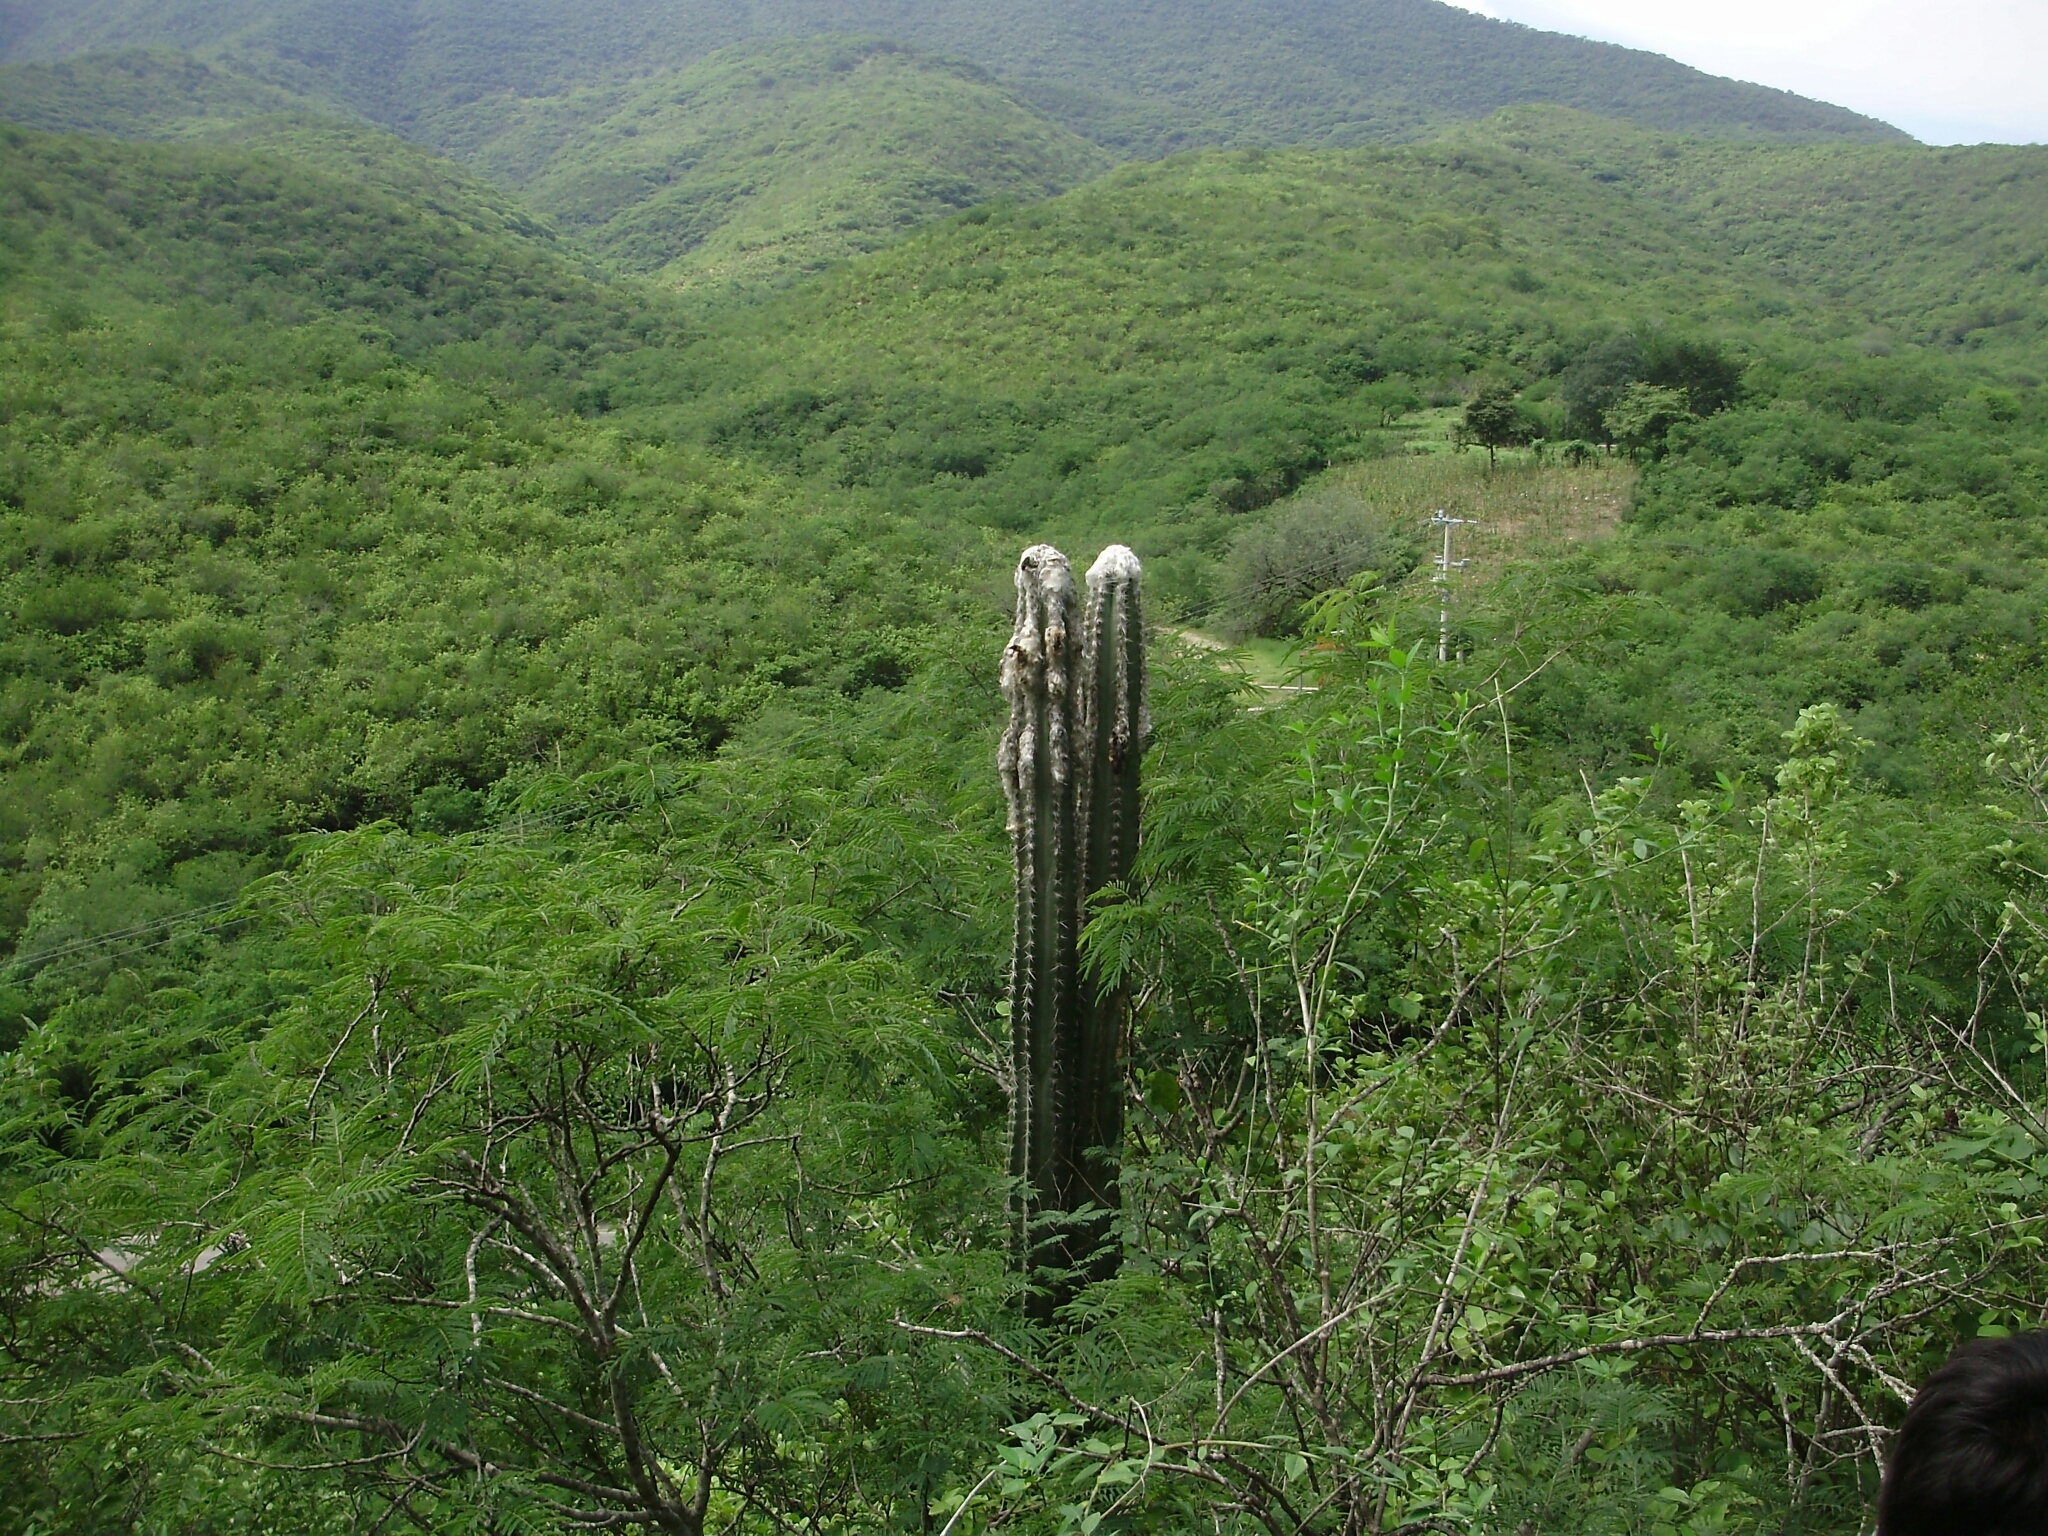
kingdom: Plantae
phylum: Tracheophyta
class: Magnoliopsida
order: Caryophyllales
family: Cactaceae
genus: Pilosocereus
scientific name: Pilosocereus leucocephalus
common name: Old man cactus
